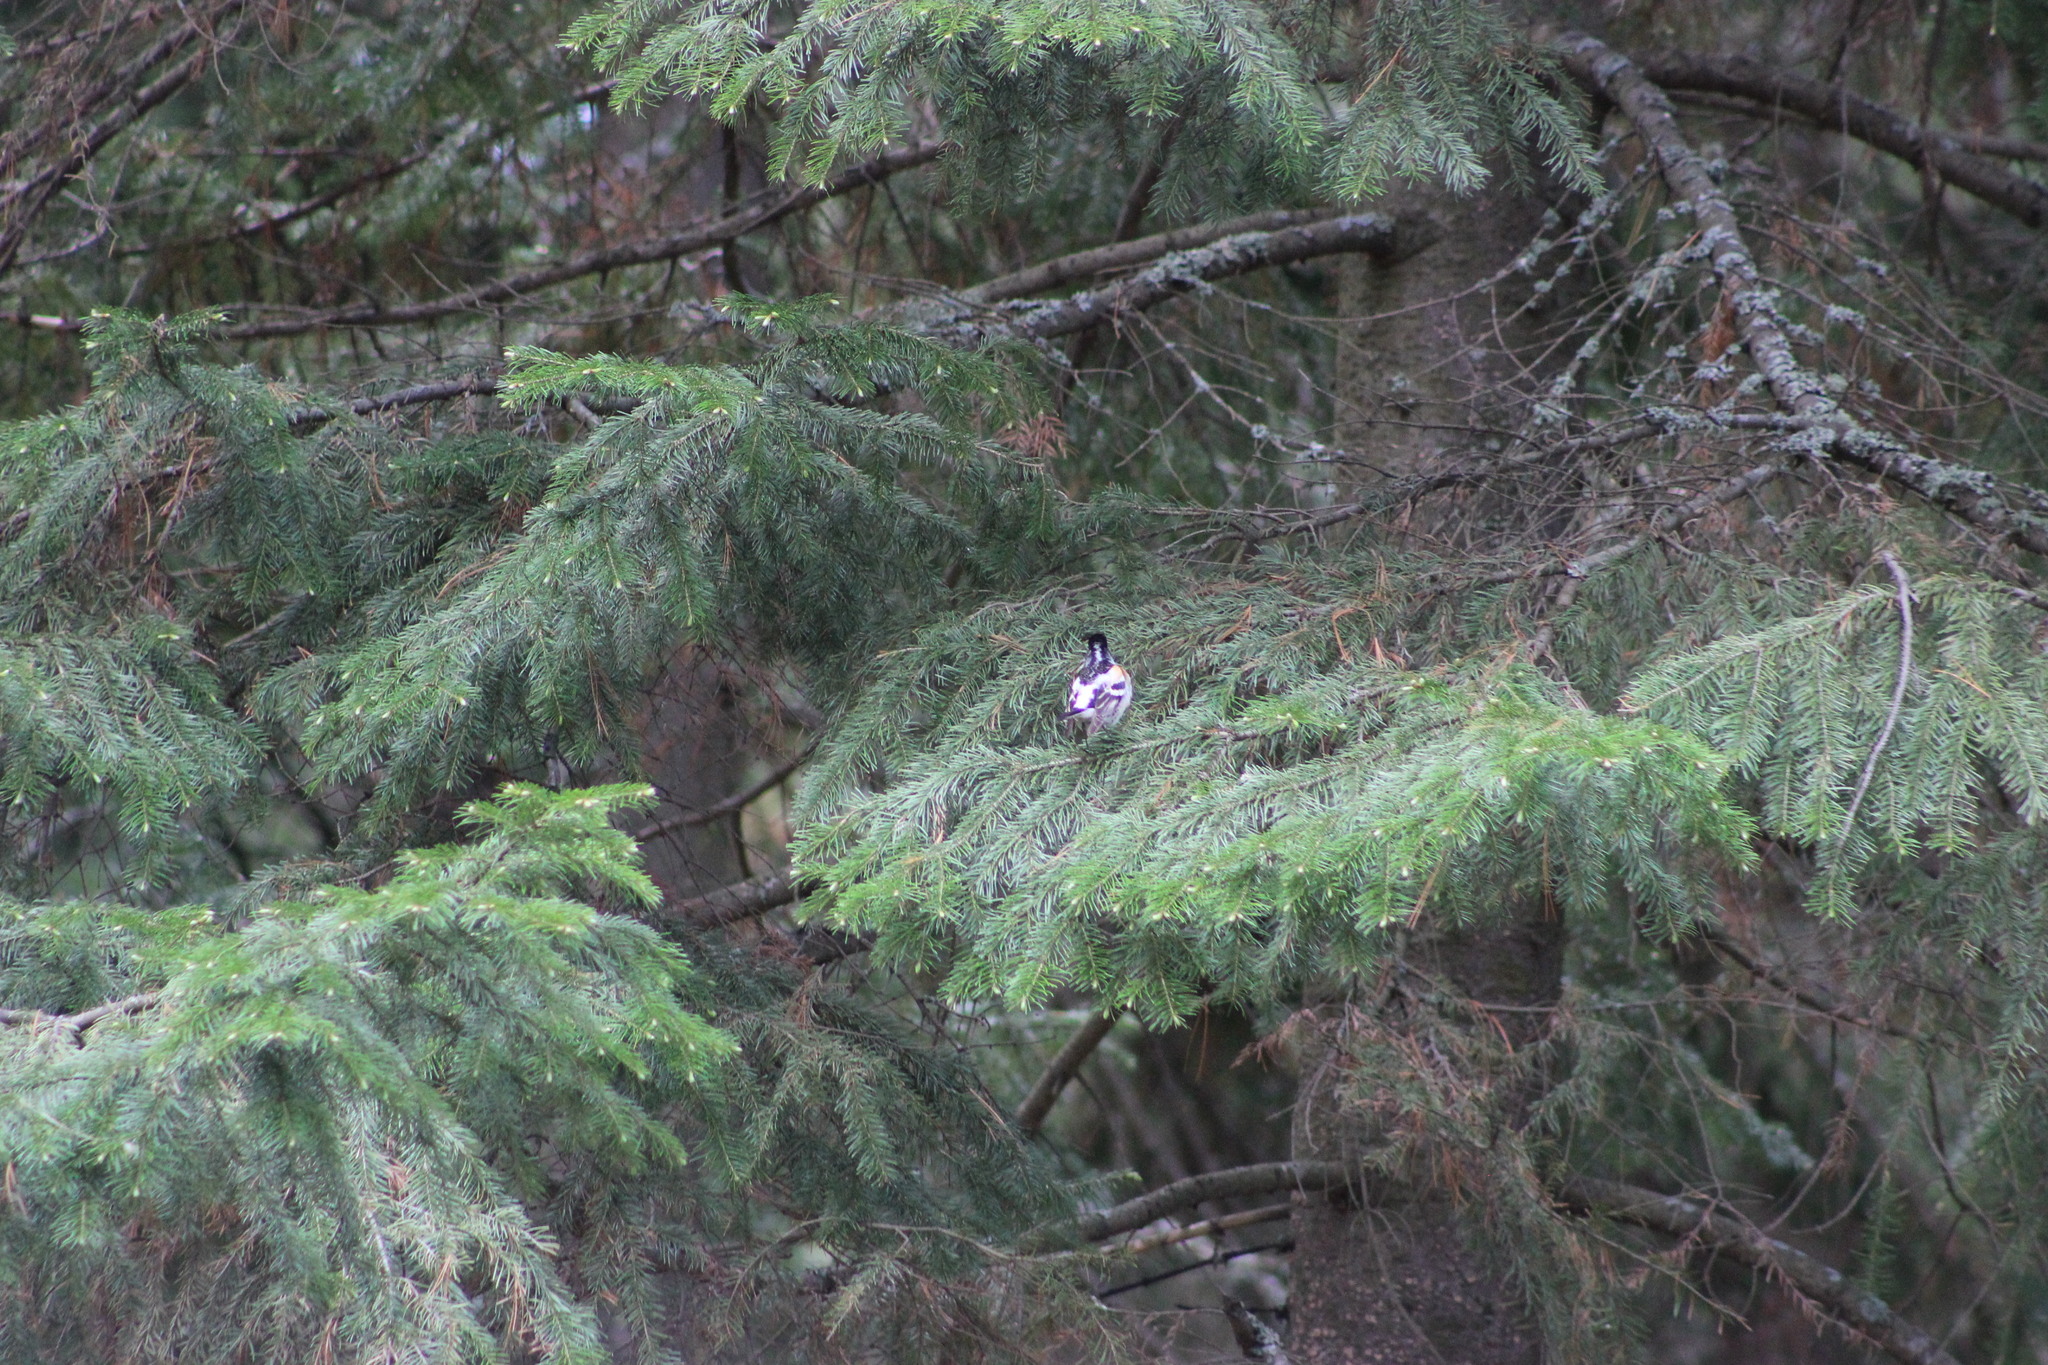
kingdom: Animalia
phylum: Chordata
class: Aves
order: Passeriformes
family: Fringillidae
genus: Fringilla
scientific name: Fringilla montifringilla
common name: Brambling
